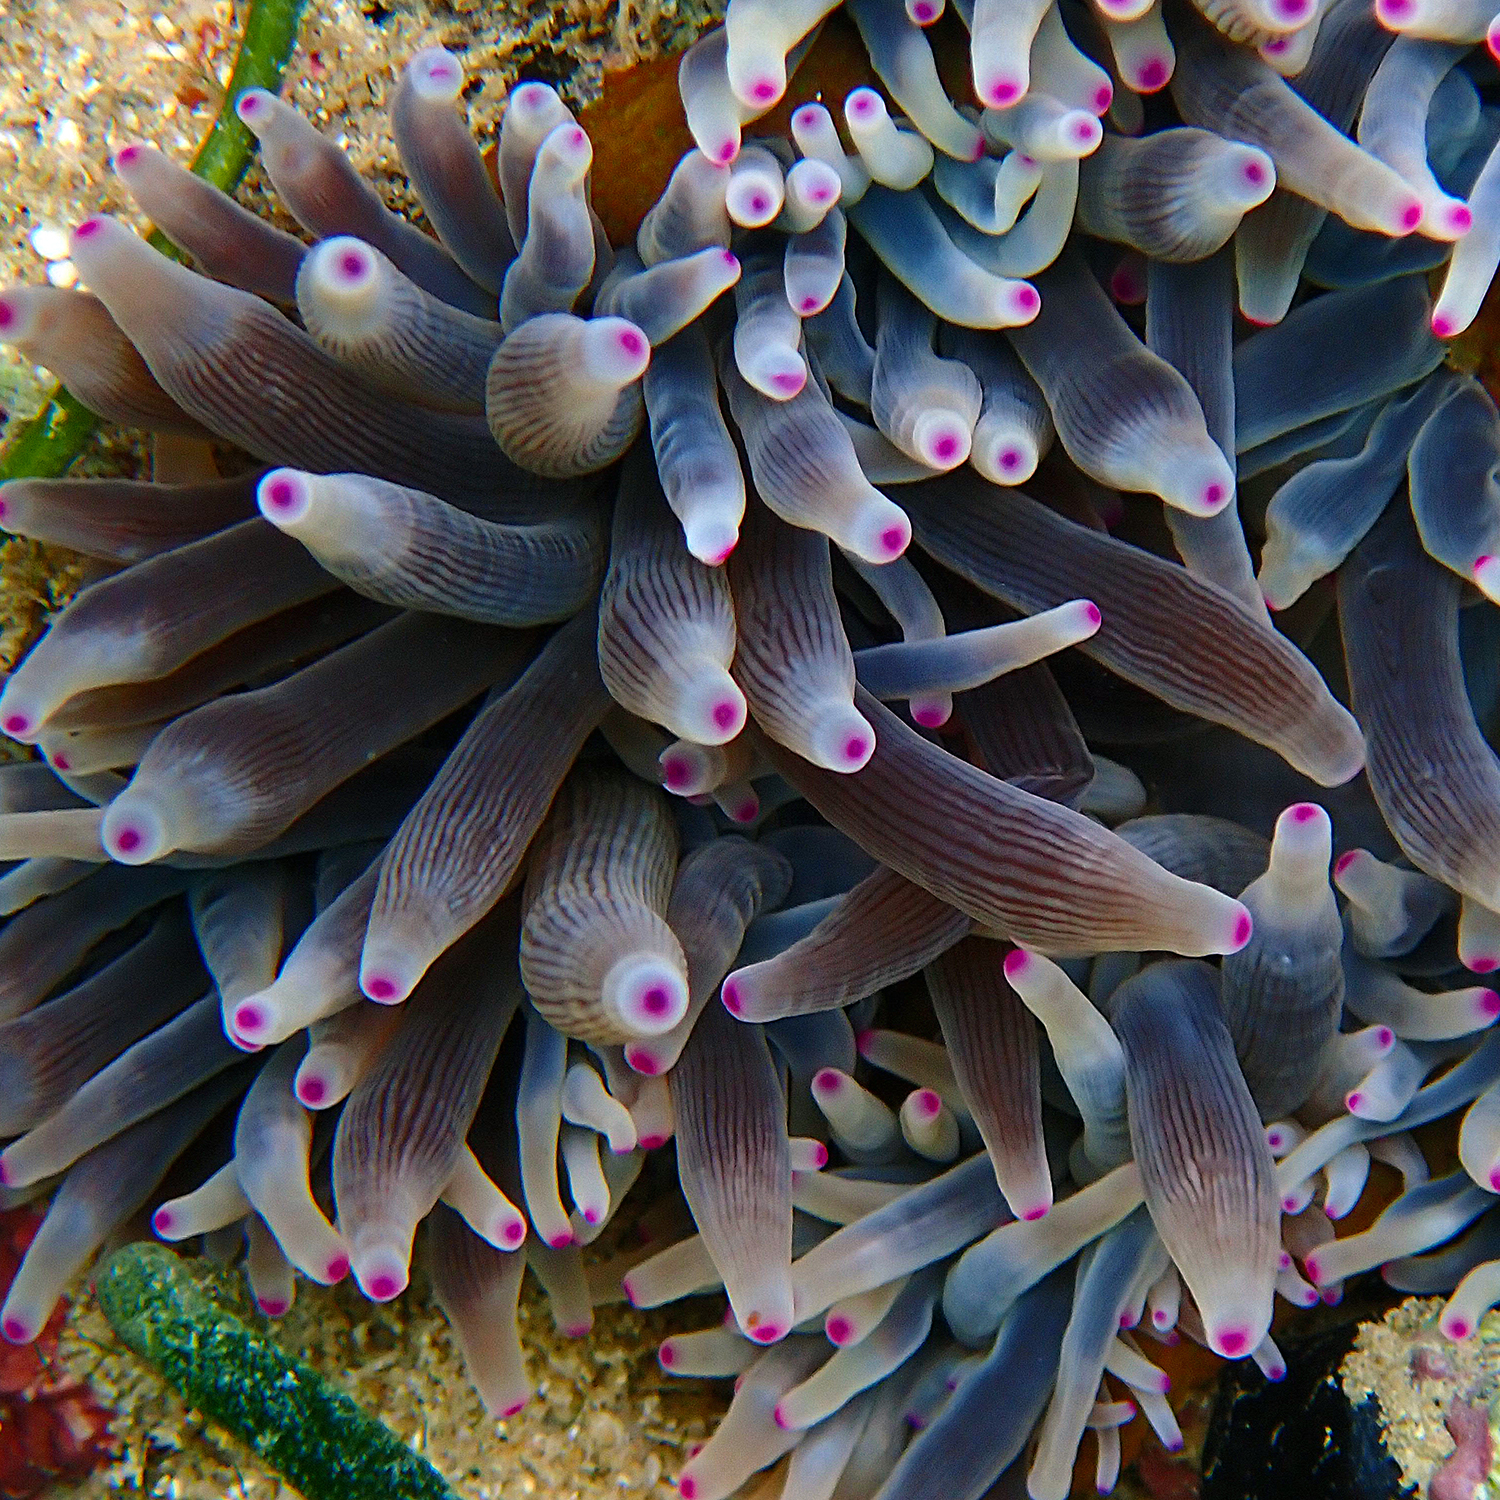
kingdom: Animalia
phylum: Cnidaria
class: Anthozoa
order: Actiniaria
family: Actiniidae
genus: Entacmaea
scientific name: Entacmaea quadricolor
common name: Bulb tentacle sea anemone
